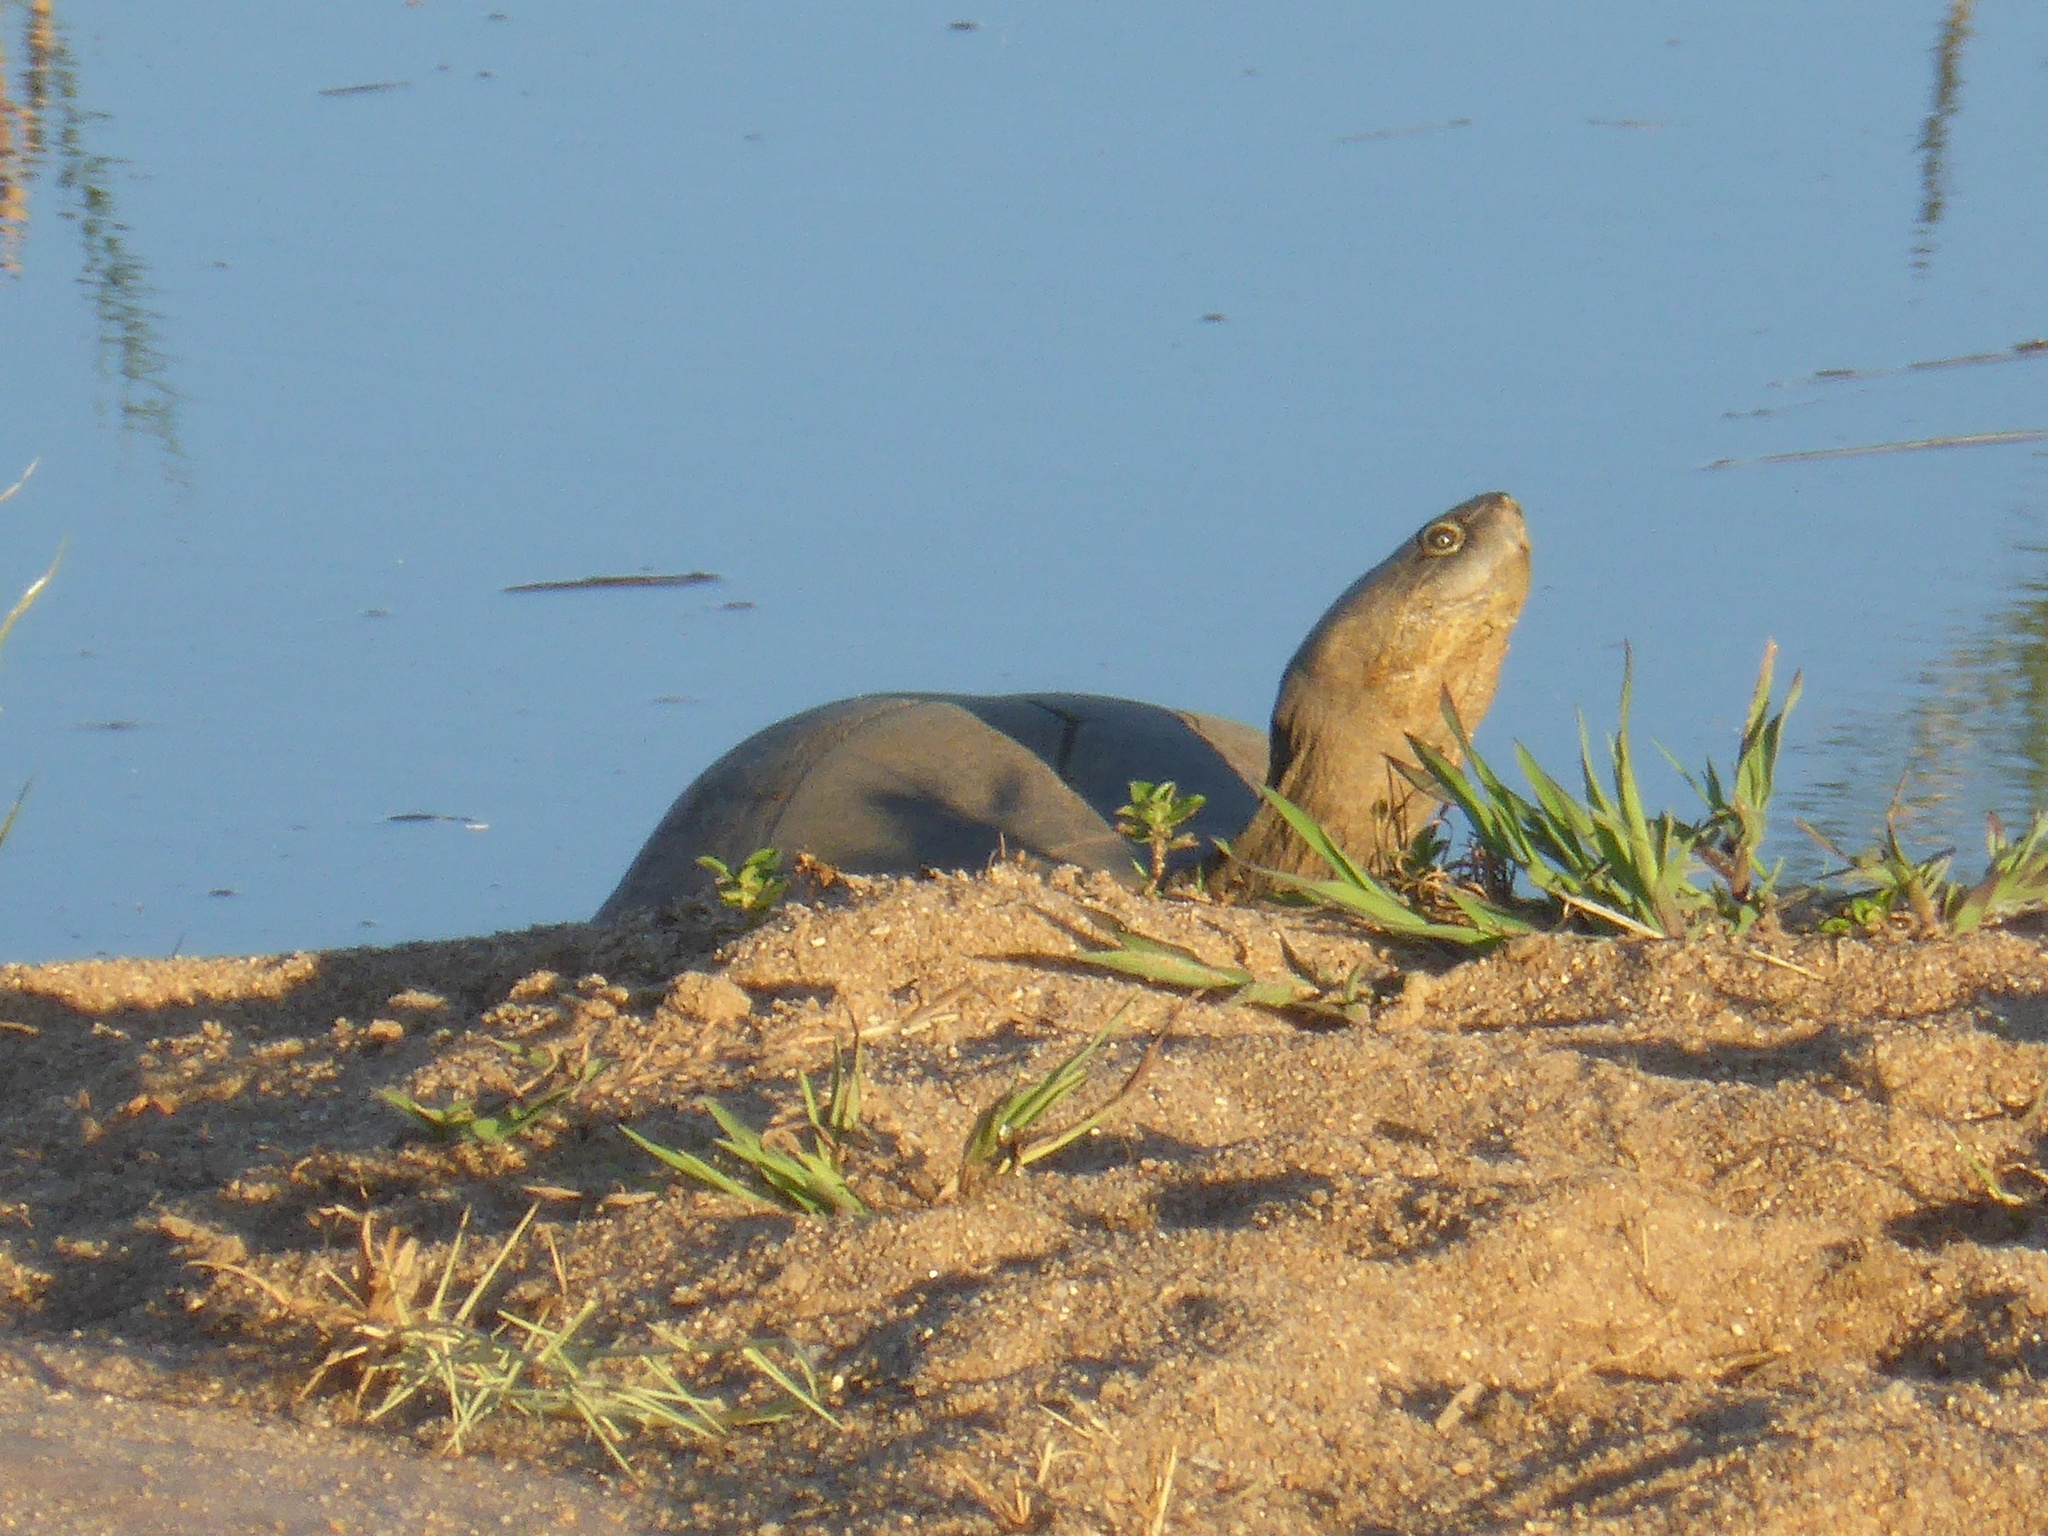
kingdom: Animalia
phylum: Chordata
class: Testudines
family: Pelomedusidae
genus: Pelusios
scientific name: Pelusios sinuatus
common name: Serrated hinged terrapin
